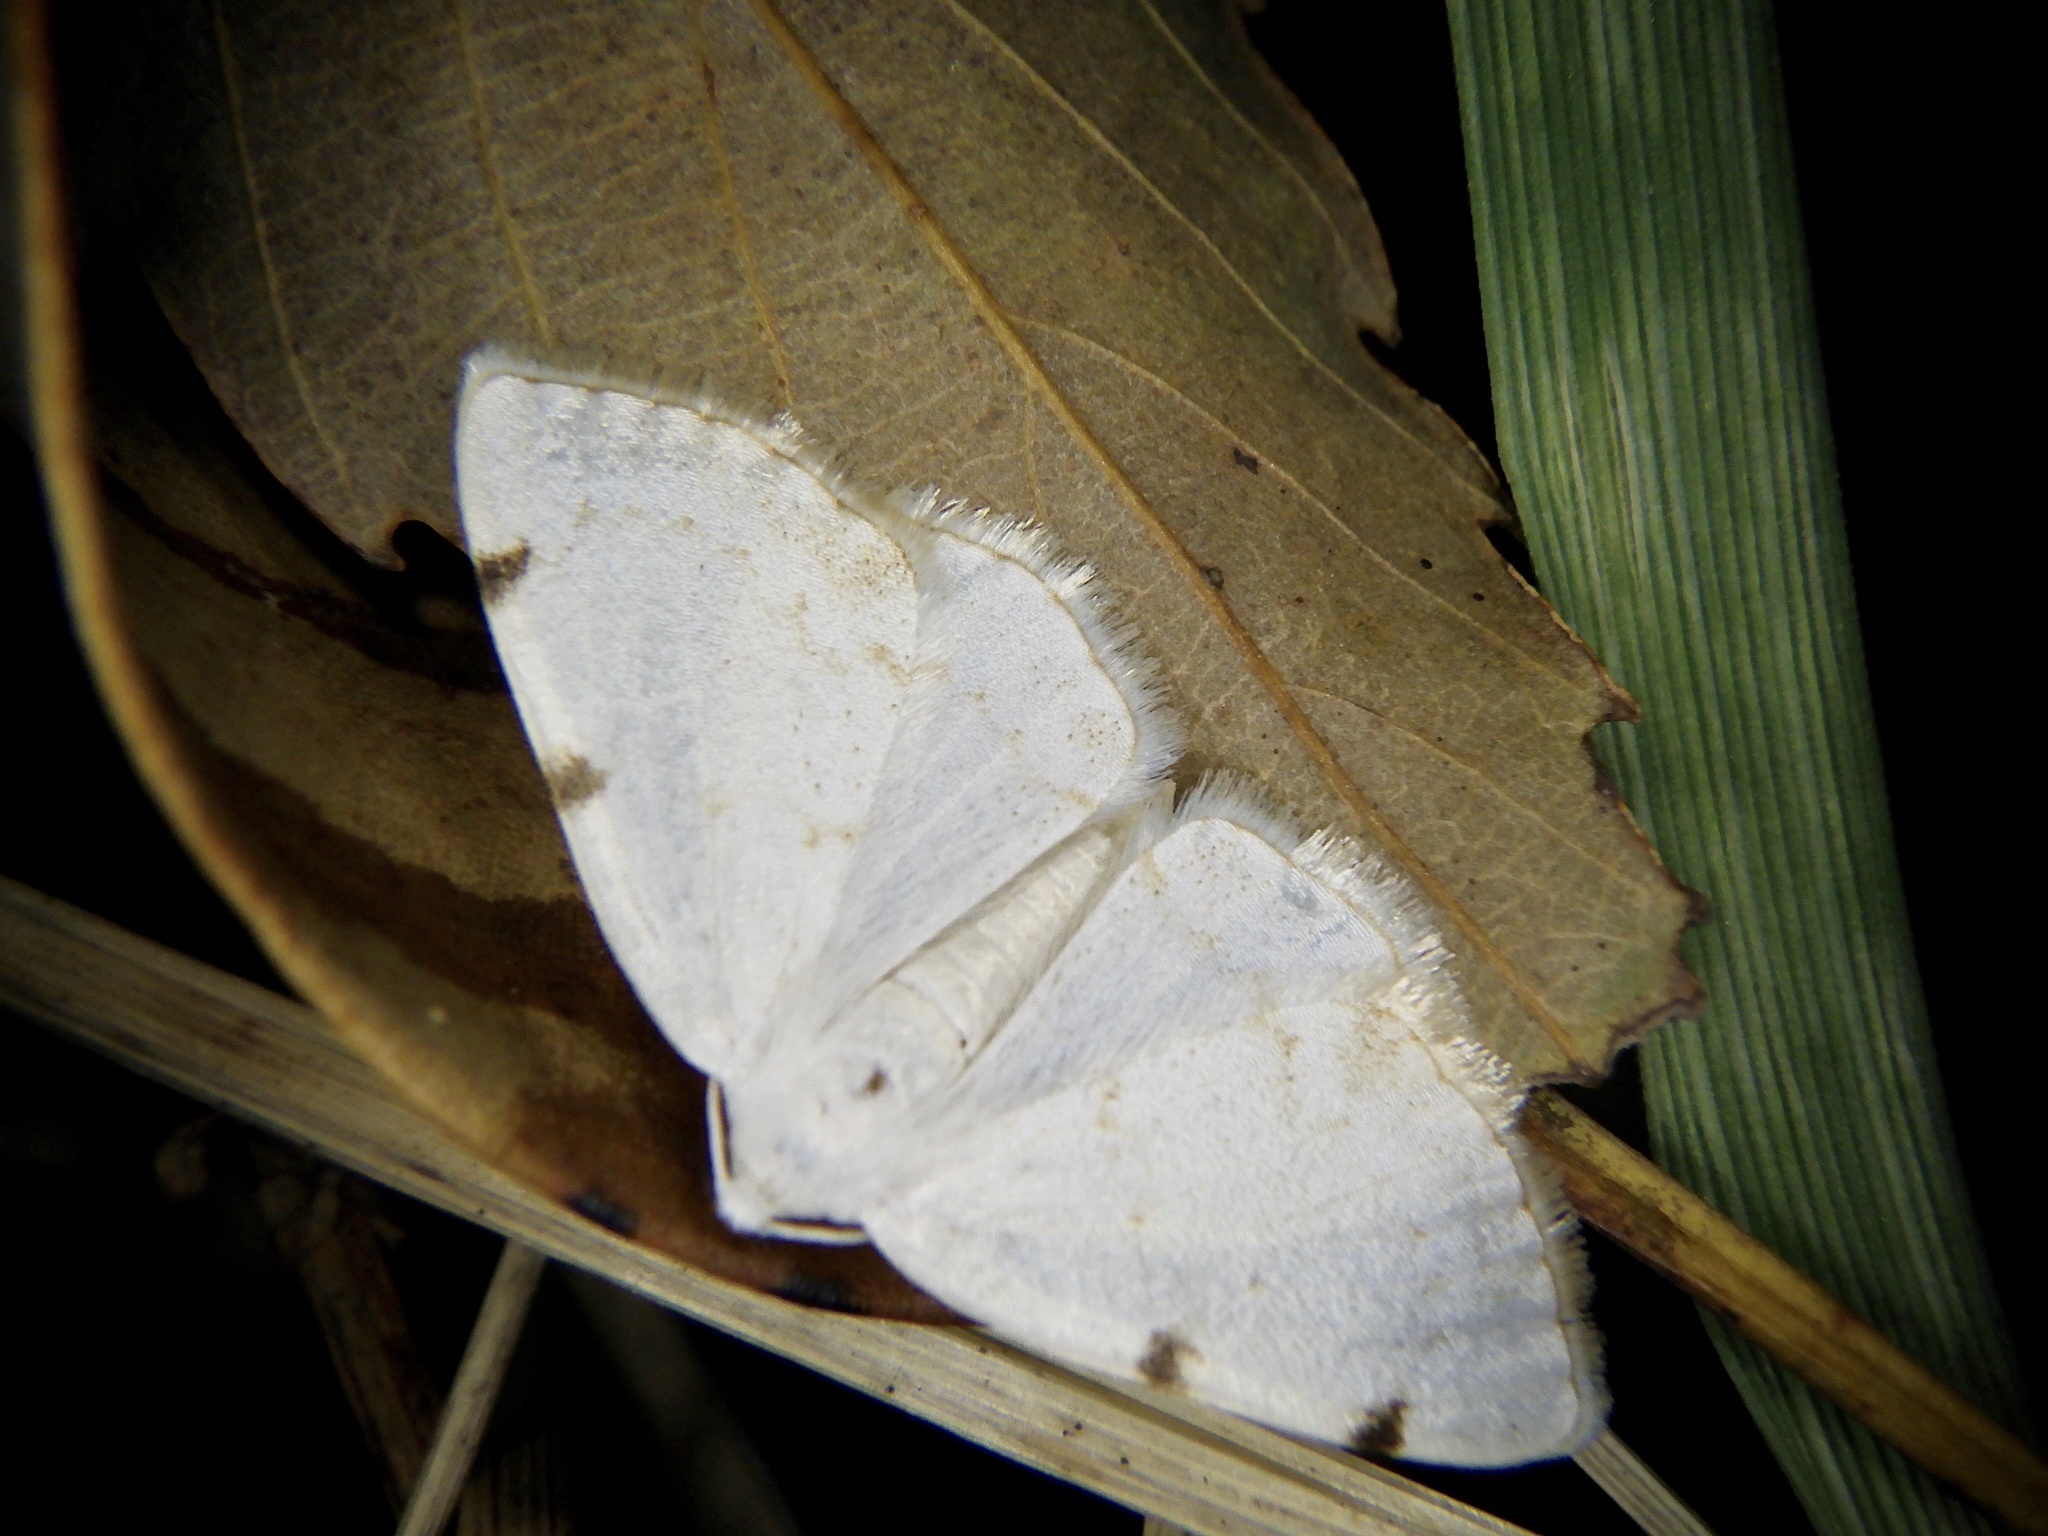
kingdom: Animalia
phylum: Arthropoda
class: Insecta
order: Lepidoptera
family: Geometridae
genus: Lomographa
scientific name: Lomographa bimaculata
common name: White-pinion spotted
